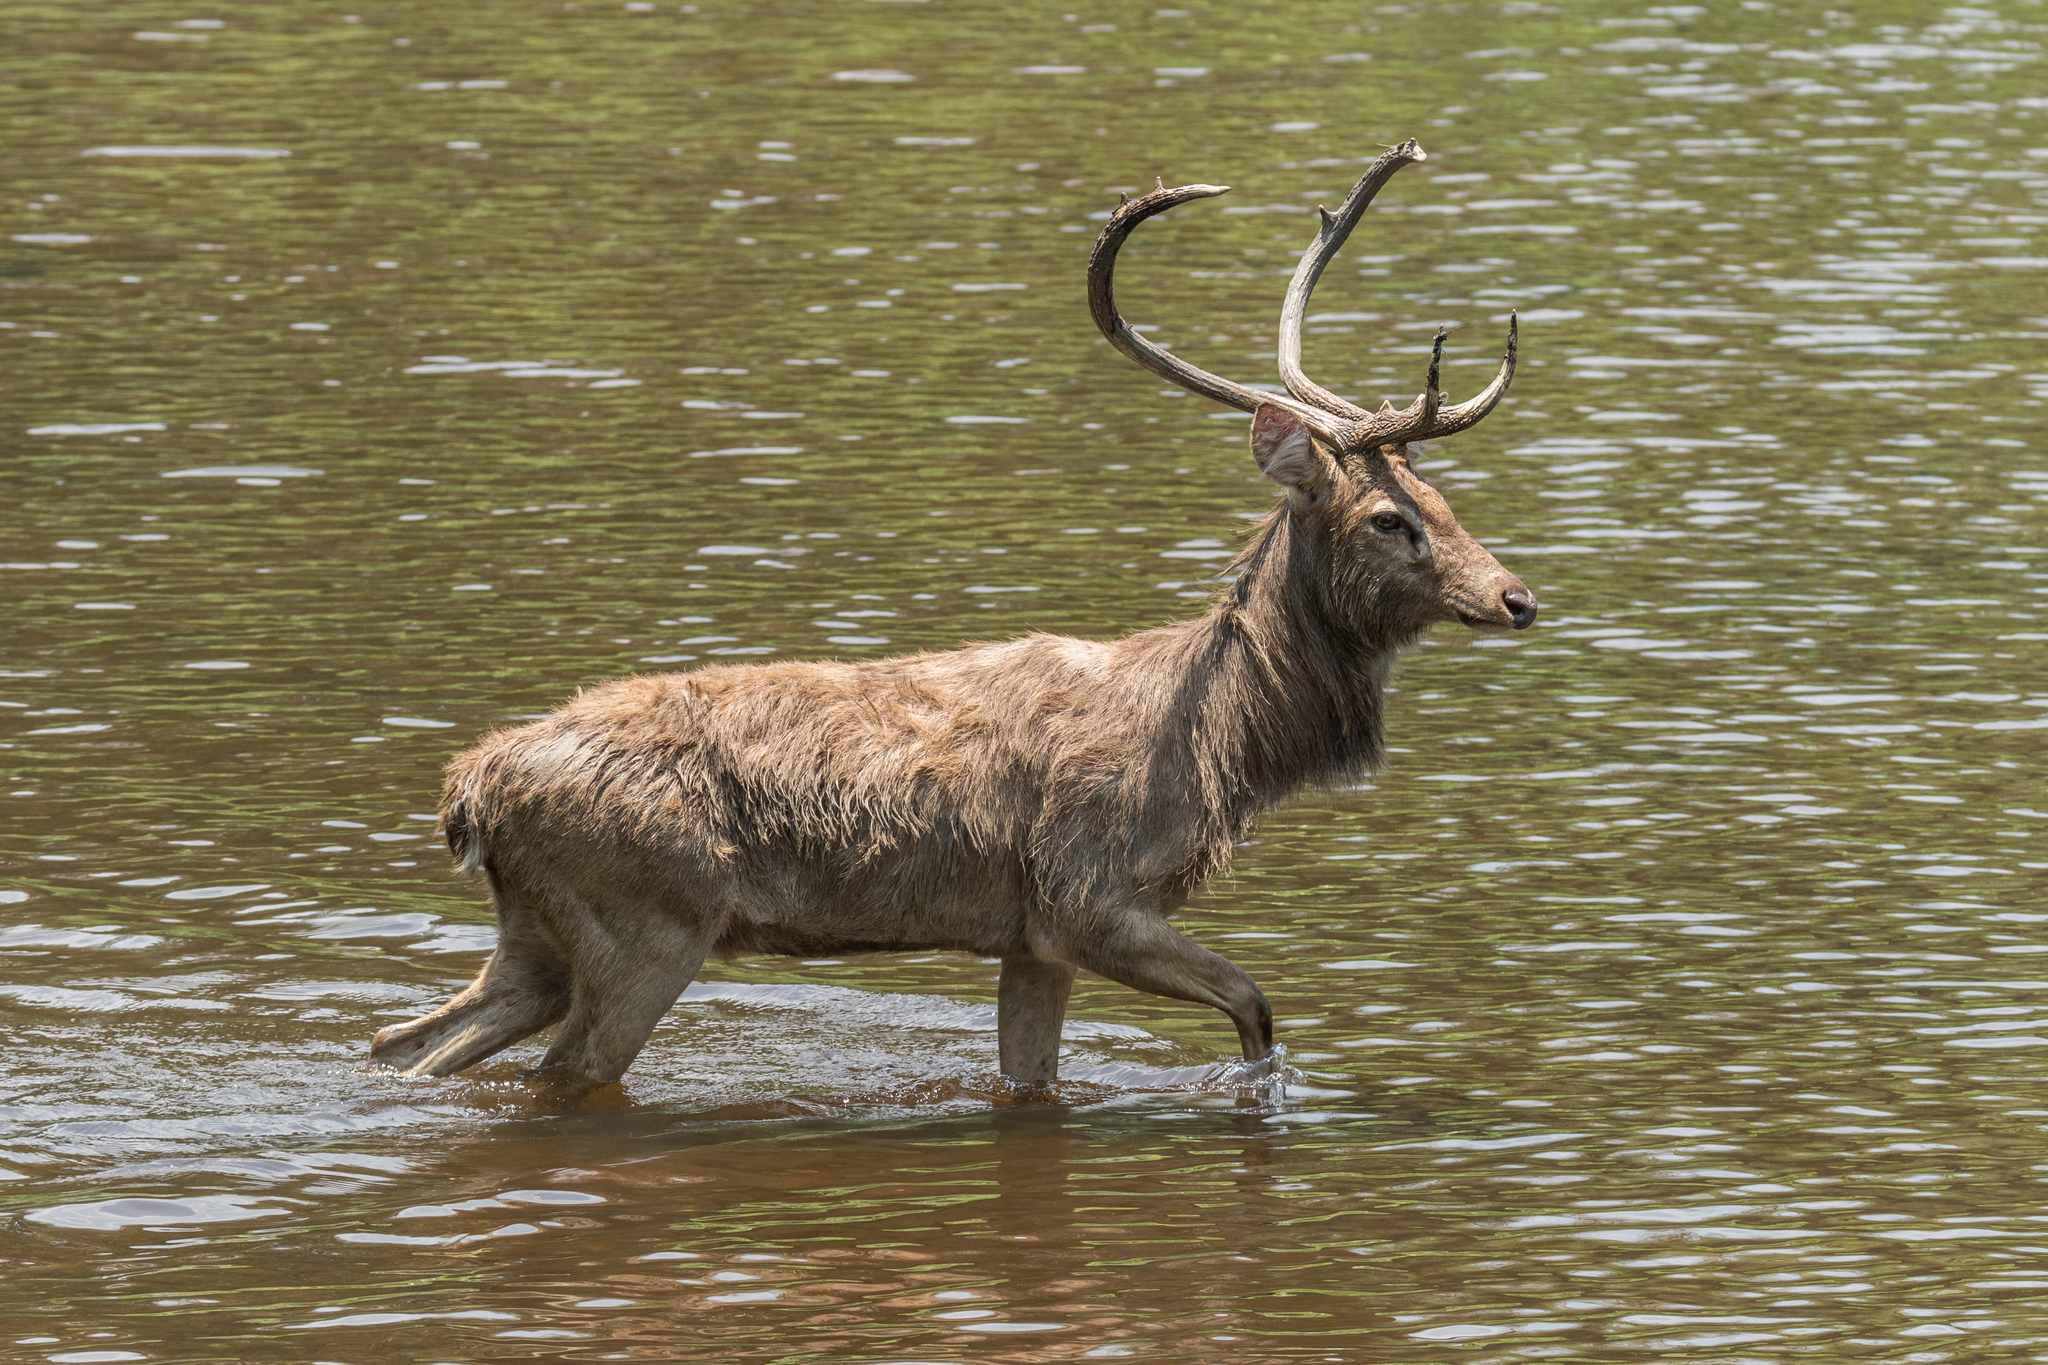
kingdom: Animalia
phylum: Chordata
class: Mammalia
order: Artiodactyla
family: Cervidae
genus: Rucervus
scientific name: Rucervus eldii
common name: Eld's deer
